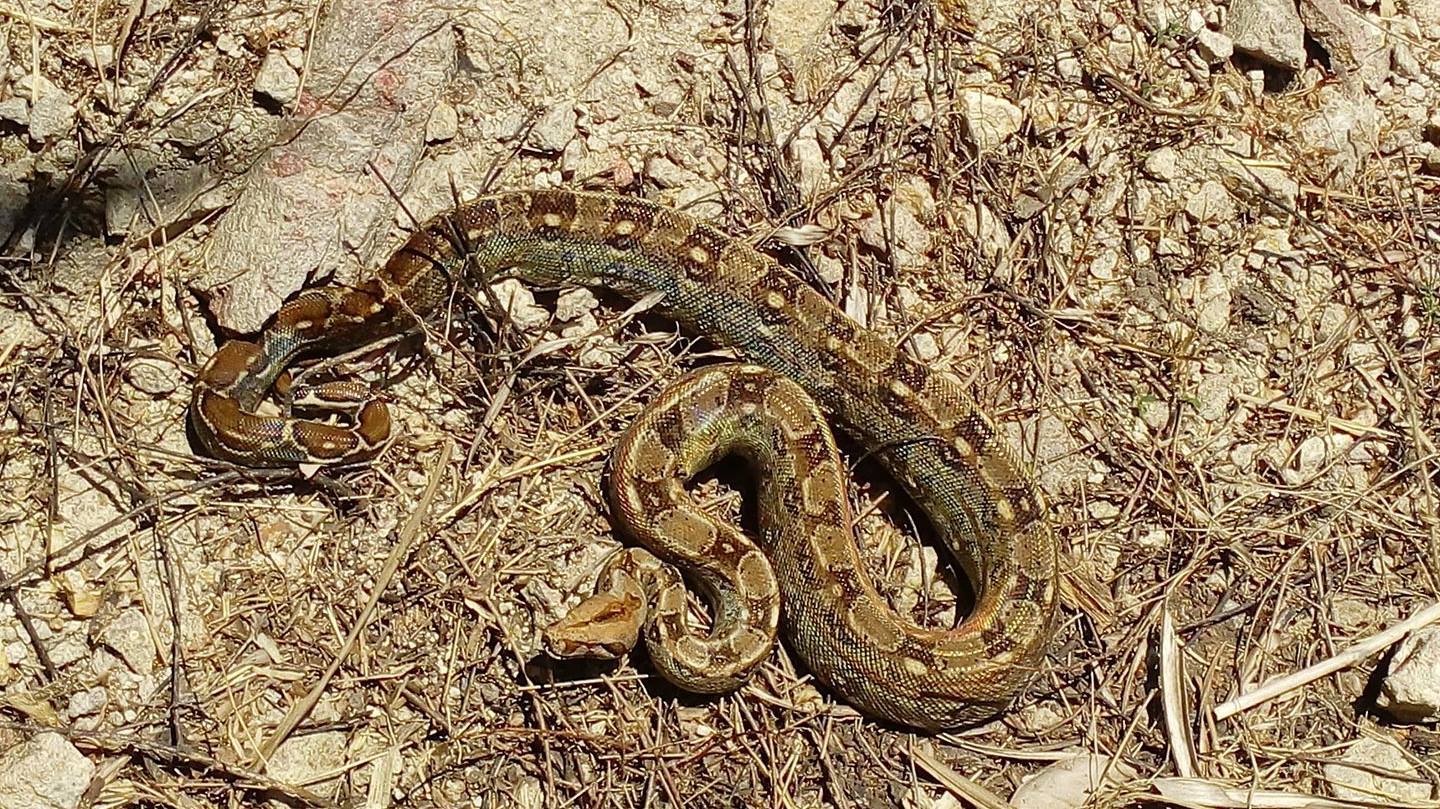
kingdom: Animalia
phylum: Chordata
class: Squamata
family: Boidae
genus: Boa
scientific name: Boa
